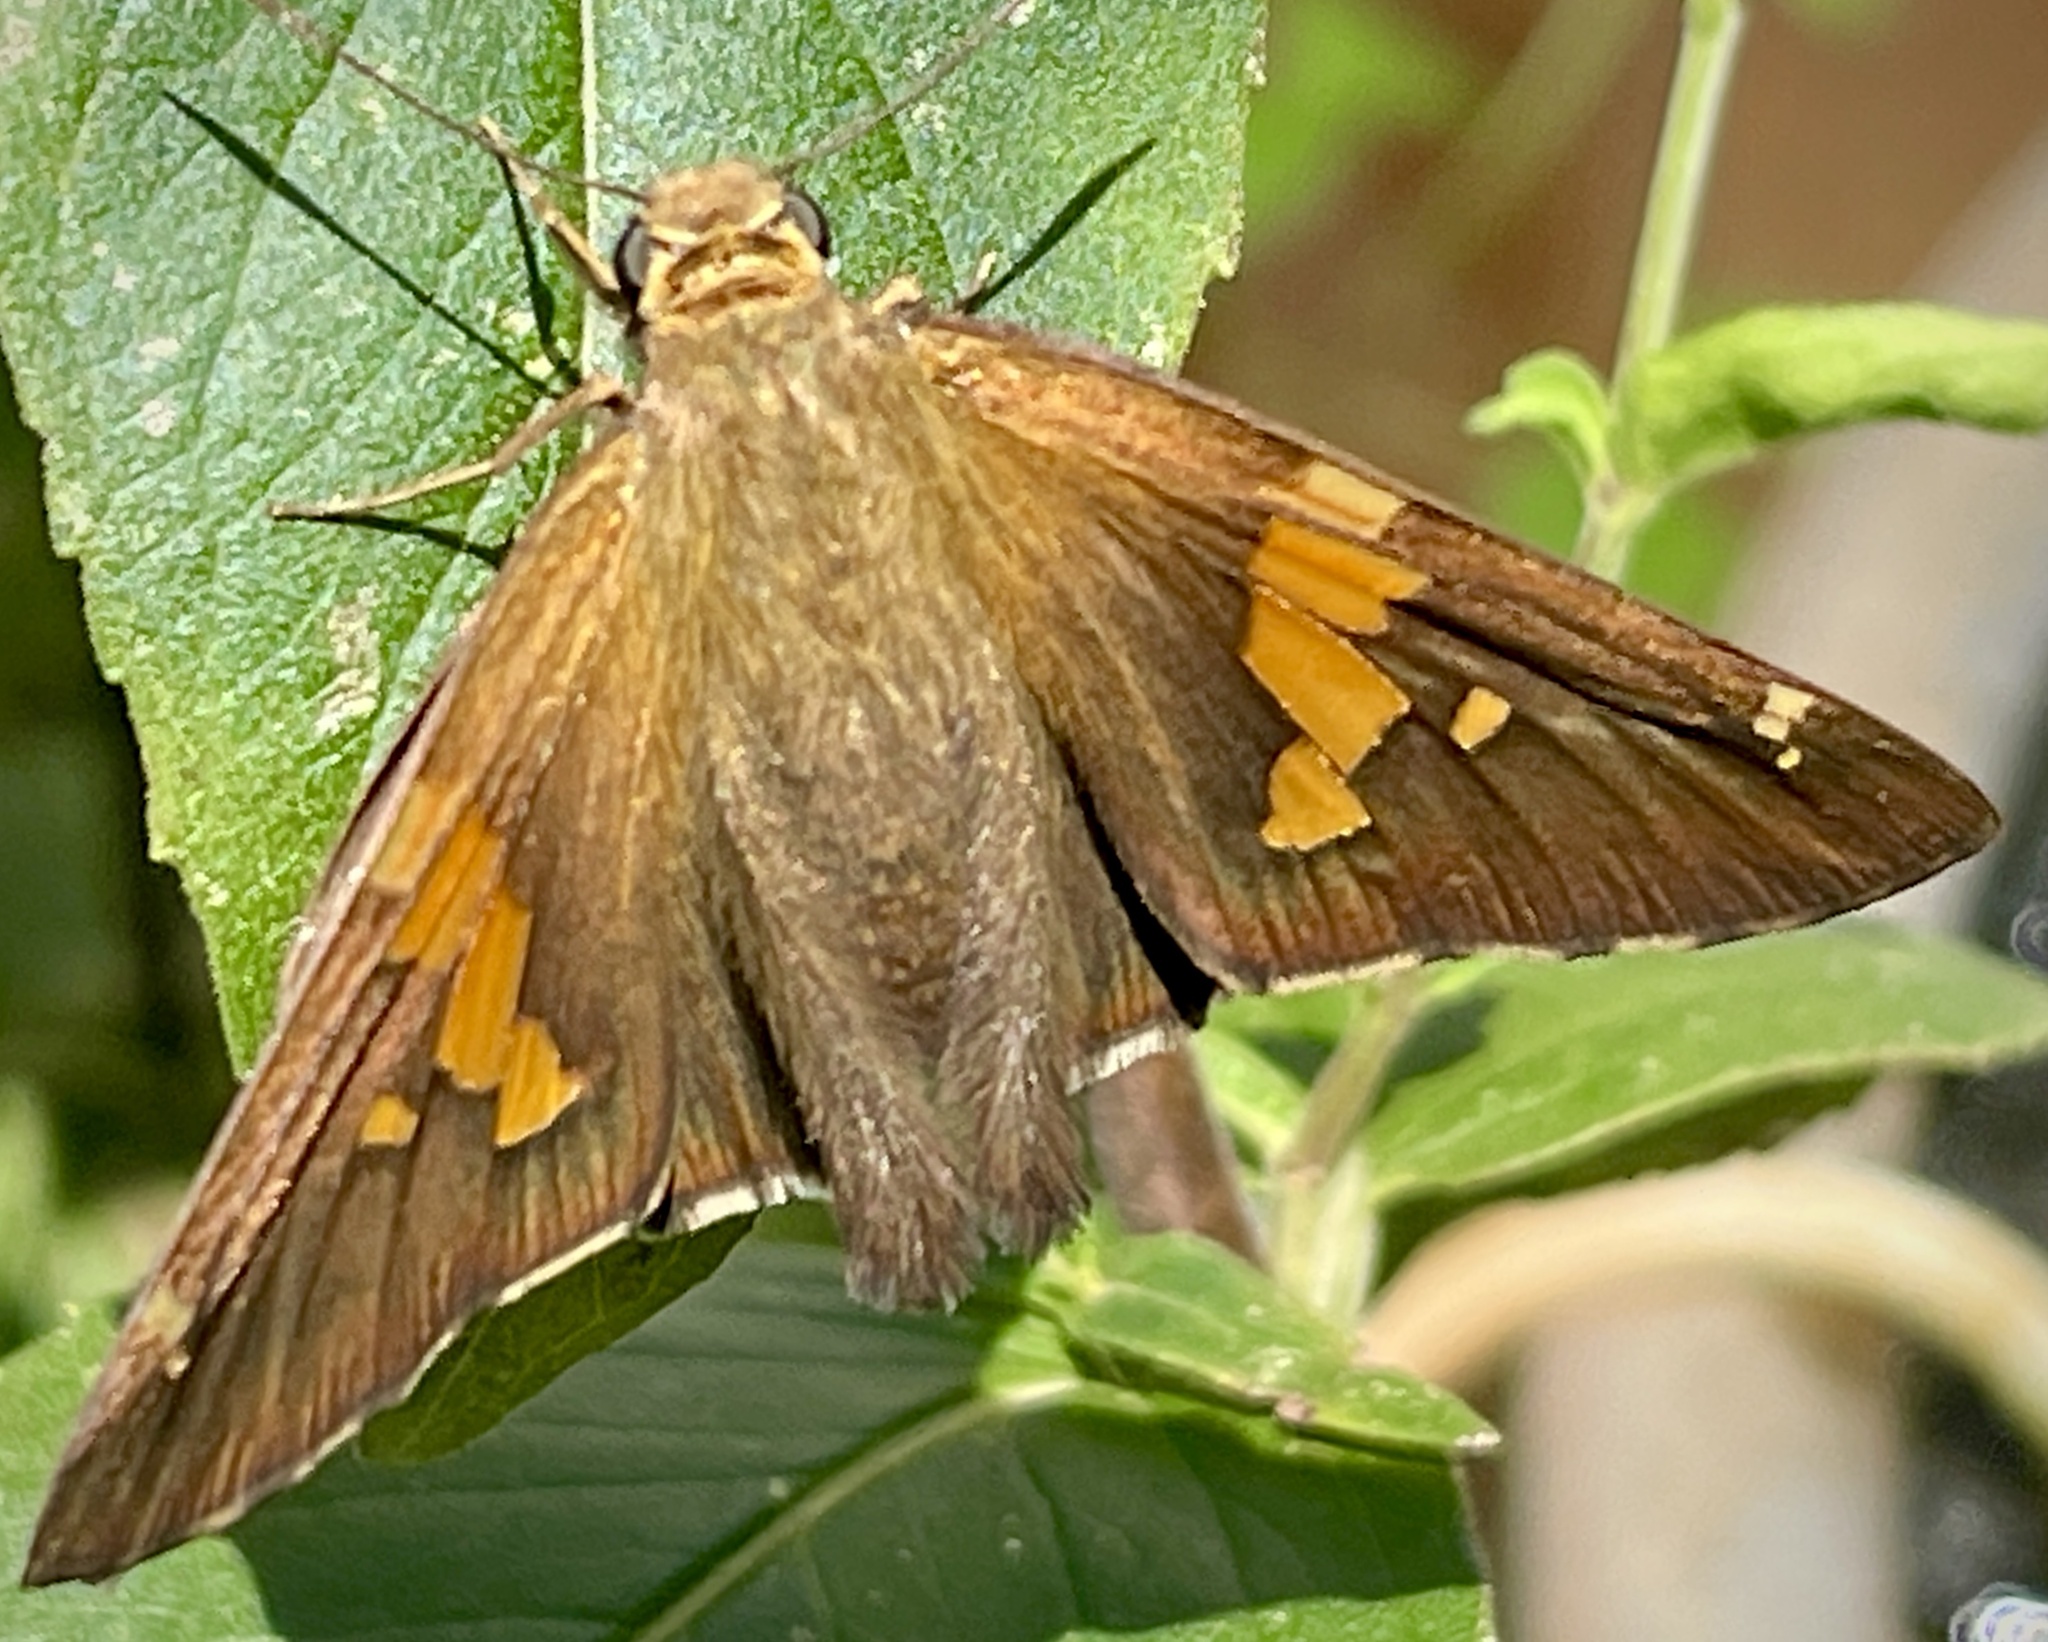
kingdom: Animalia
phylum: Arthropoda
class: Insecta
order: Lepidoptera
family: Hesperiidae
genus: Epargyreus
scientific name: Epargyreus clarus
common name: Silver-spotted skipper
